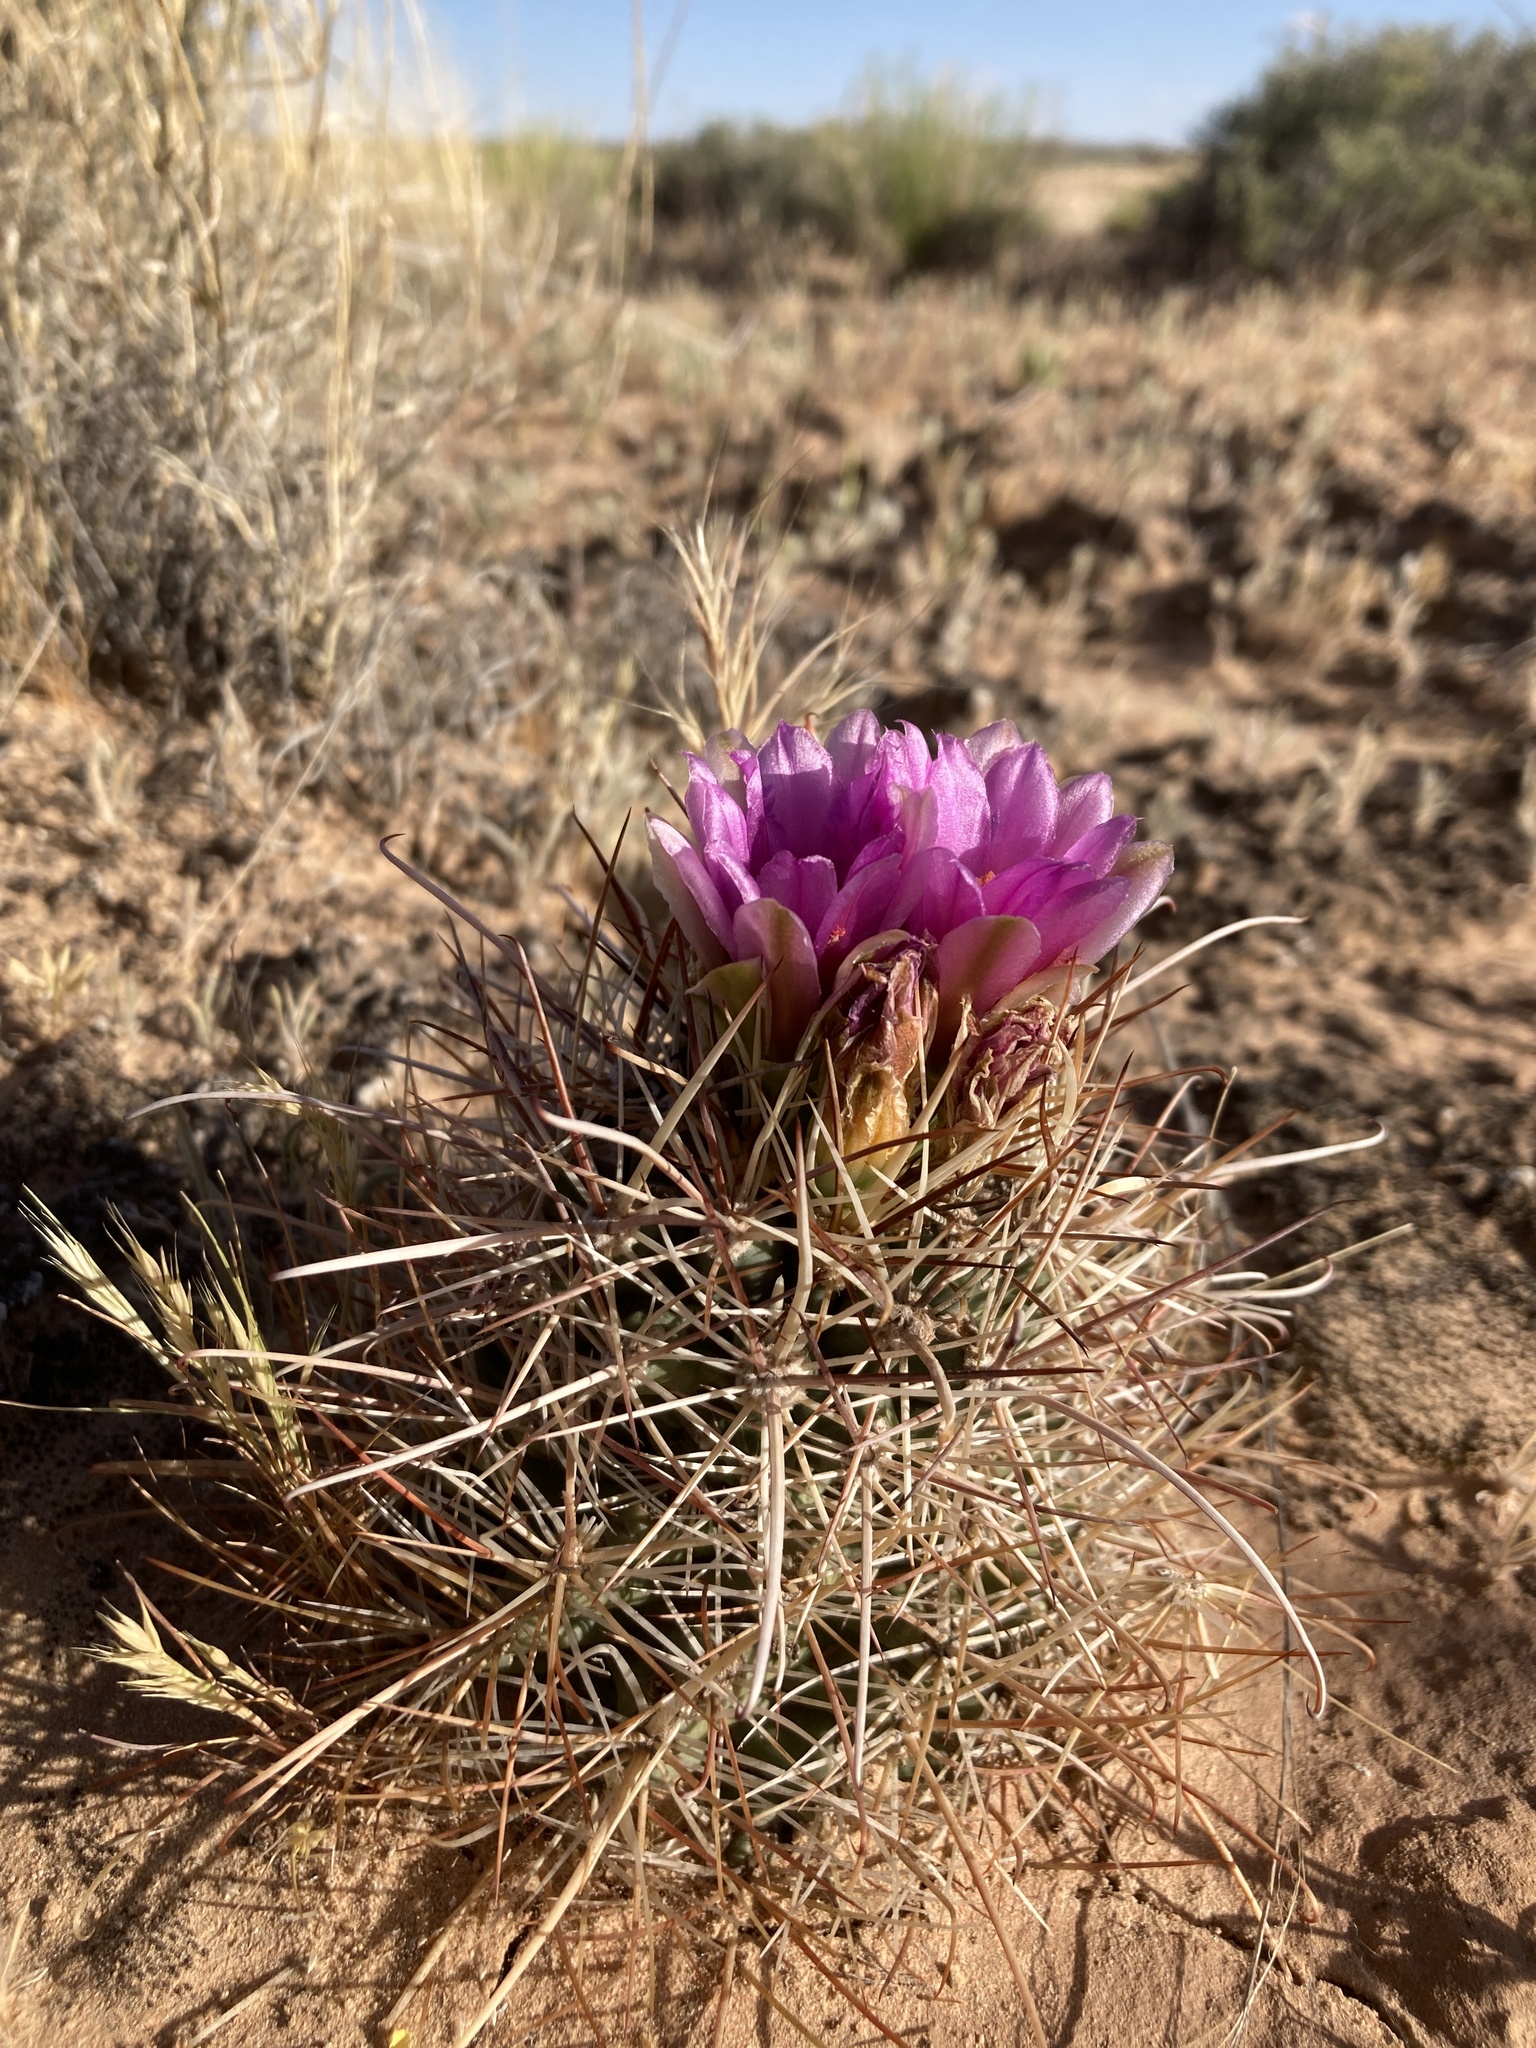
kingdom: Plantae
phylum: Tracheophyta
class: Magnoliopsida
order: Caryophyllales
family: Cactaceae
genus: Sclerocactus
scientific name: Sclerocactus parviflorus
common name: Small-flower fishhook cactus
